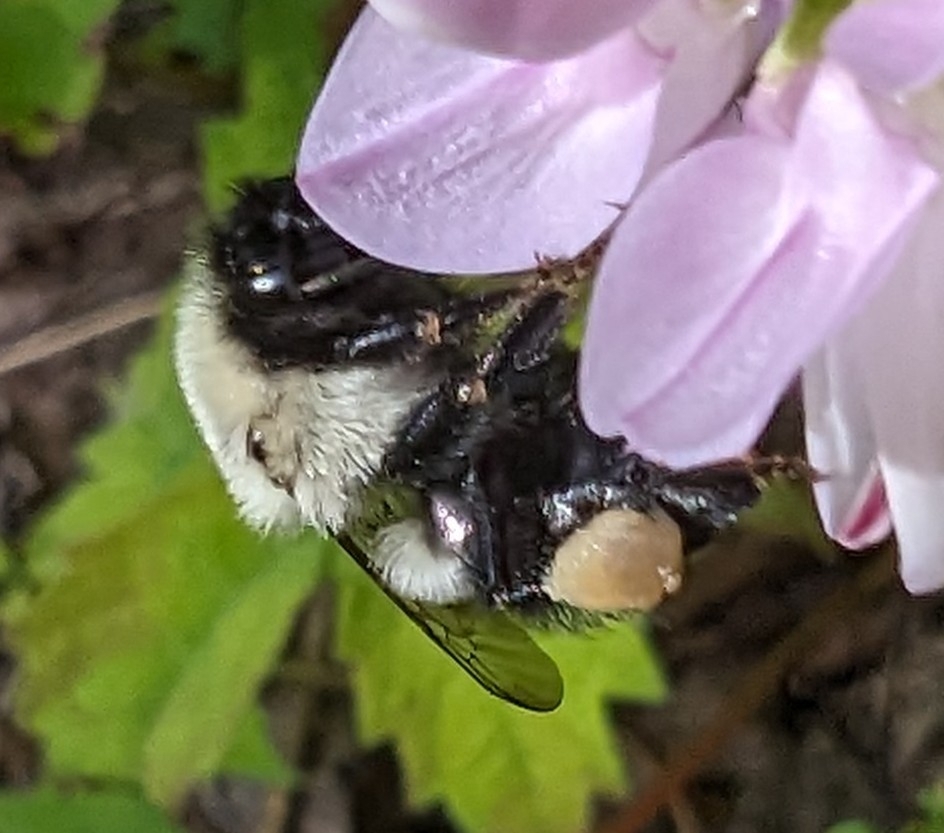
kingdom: Animalia
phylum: Arthropoda
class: Insecta
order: Hymenoptera
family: Apidae
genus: Bombus
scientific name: Bombus impatiens
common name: Common eastern bumble bee
